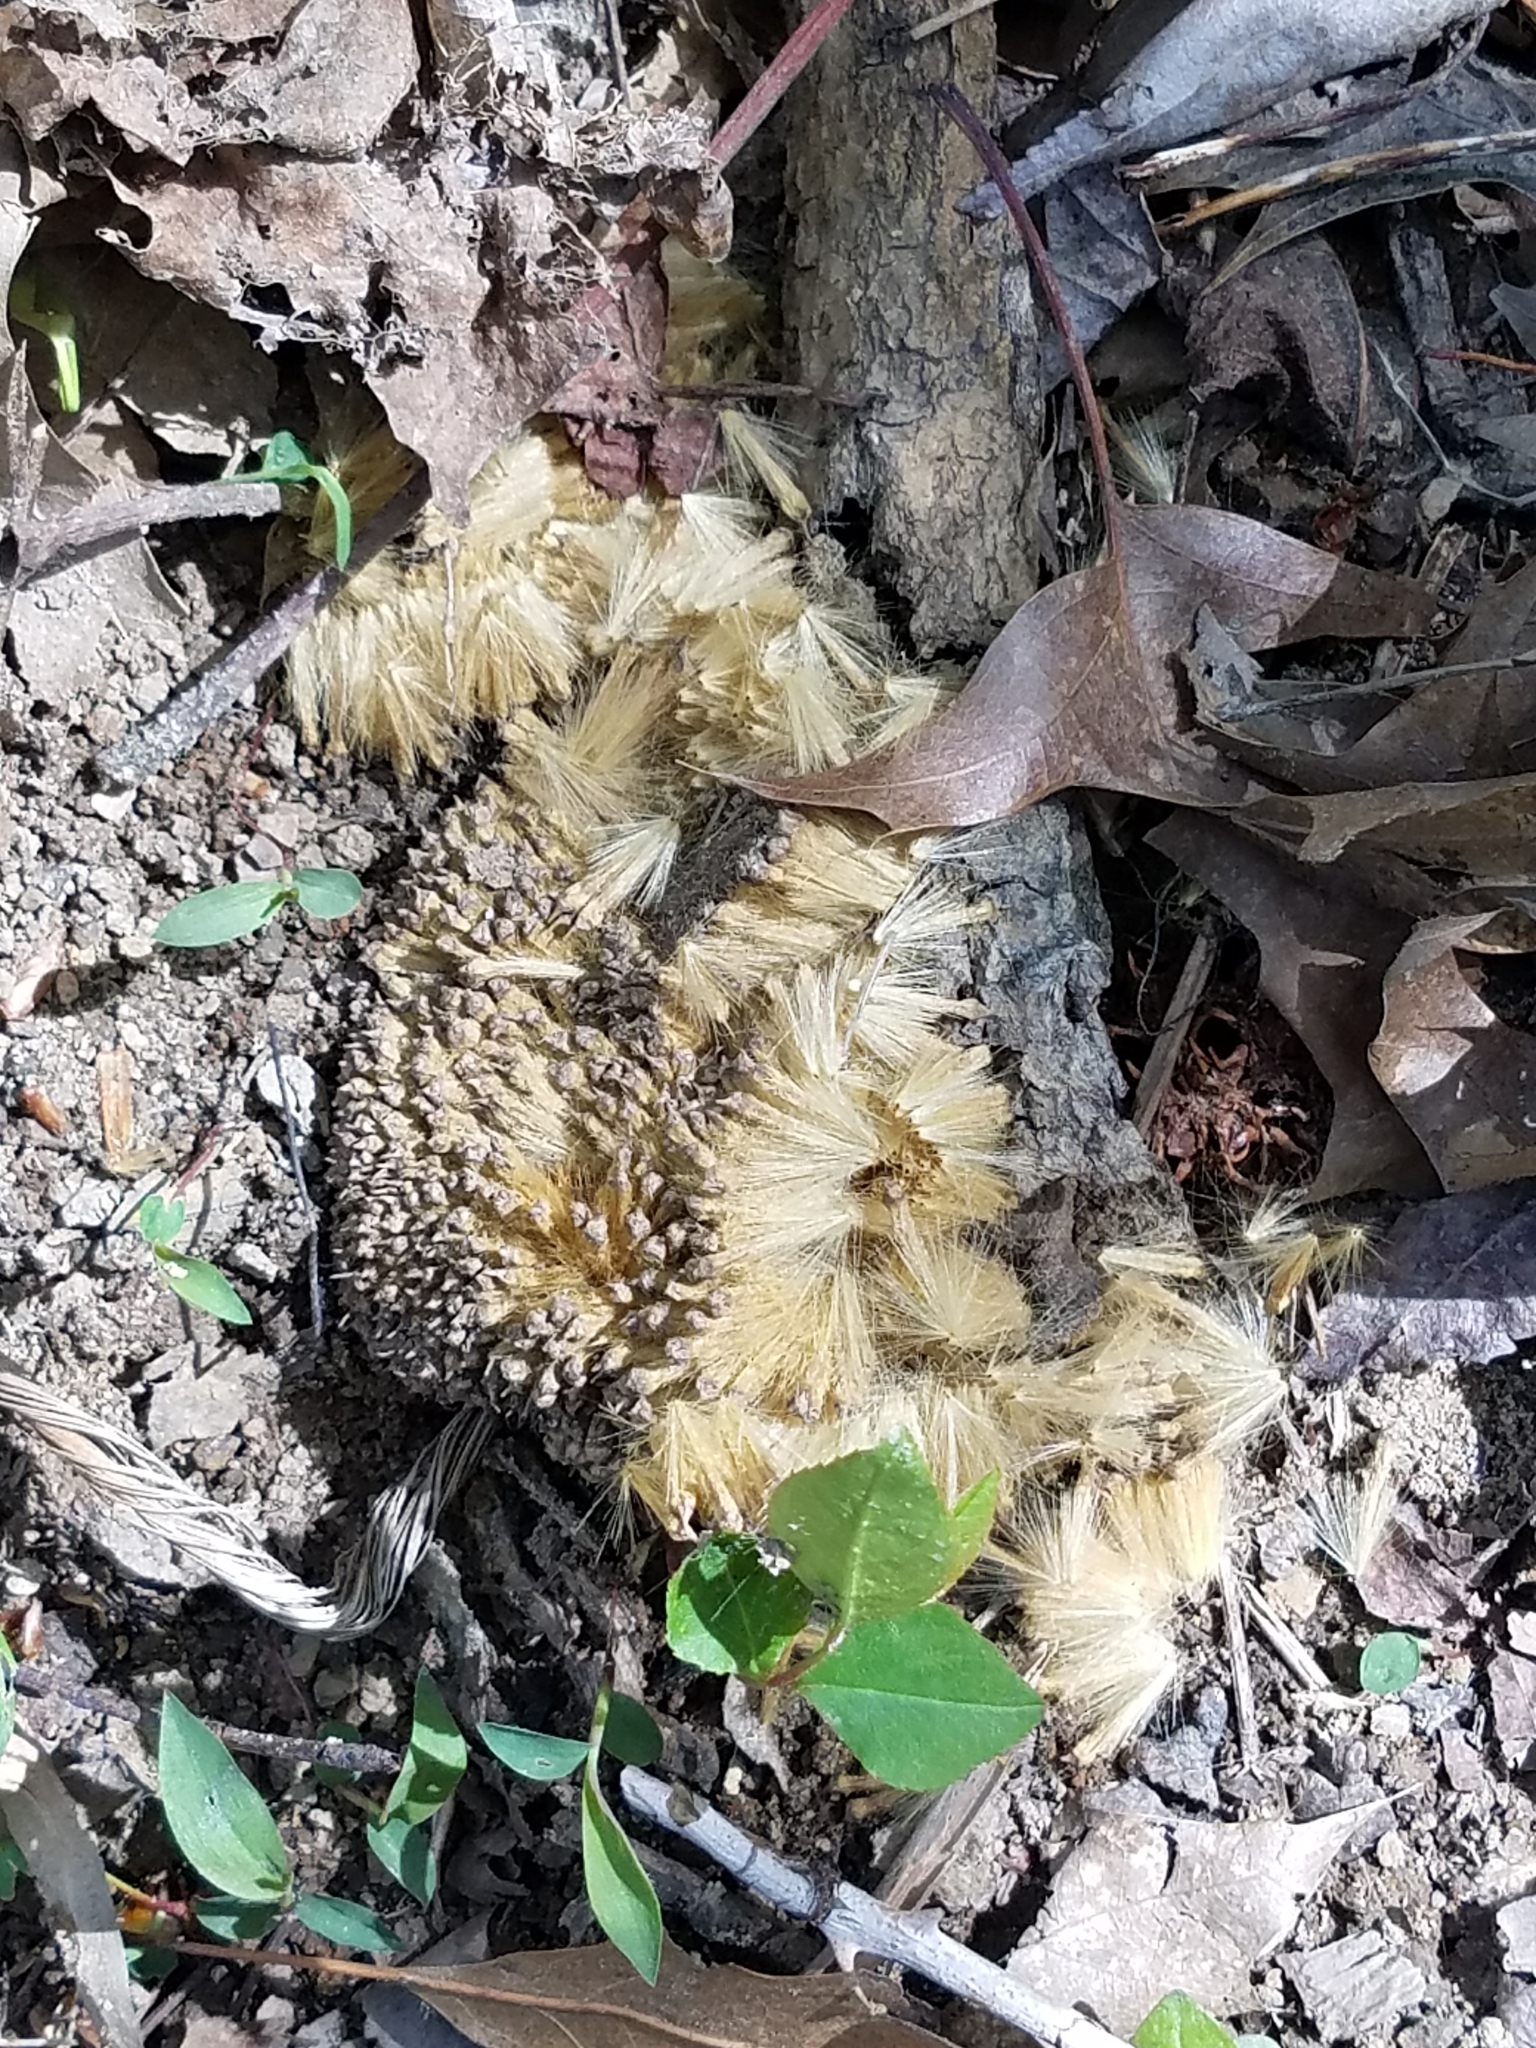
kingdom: Plantae
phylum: Tracheophyta
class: Magnoliopsida
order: Proteales
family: Platanaceae
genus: Platanus
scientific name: Platanus occidentalis
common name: American sycamore
